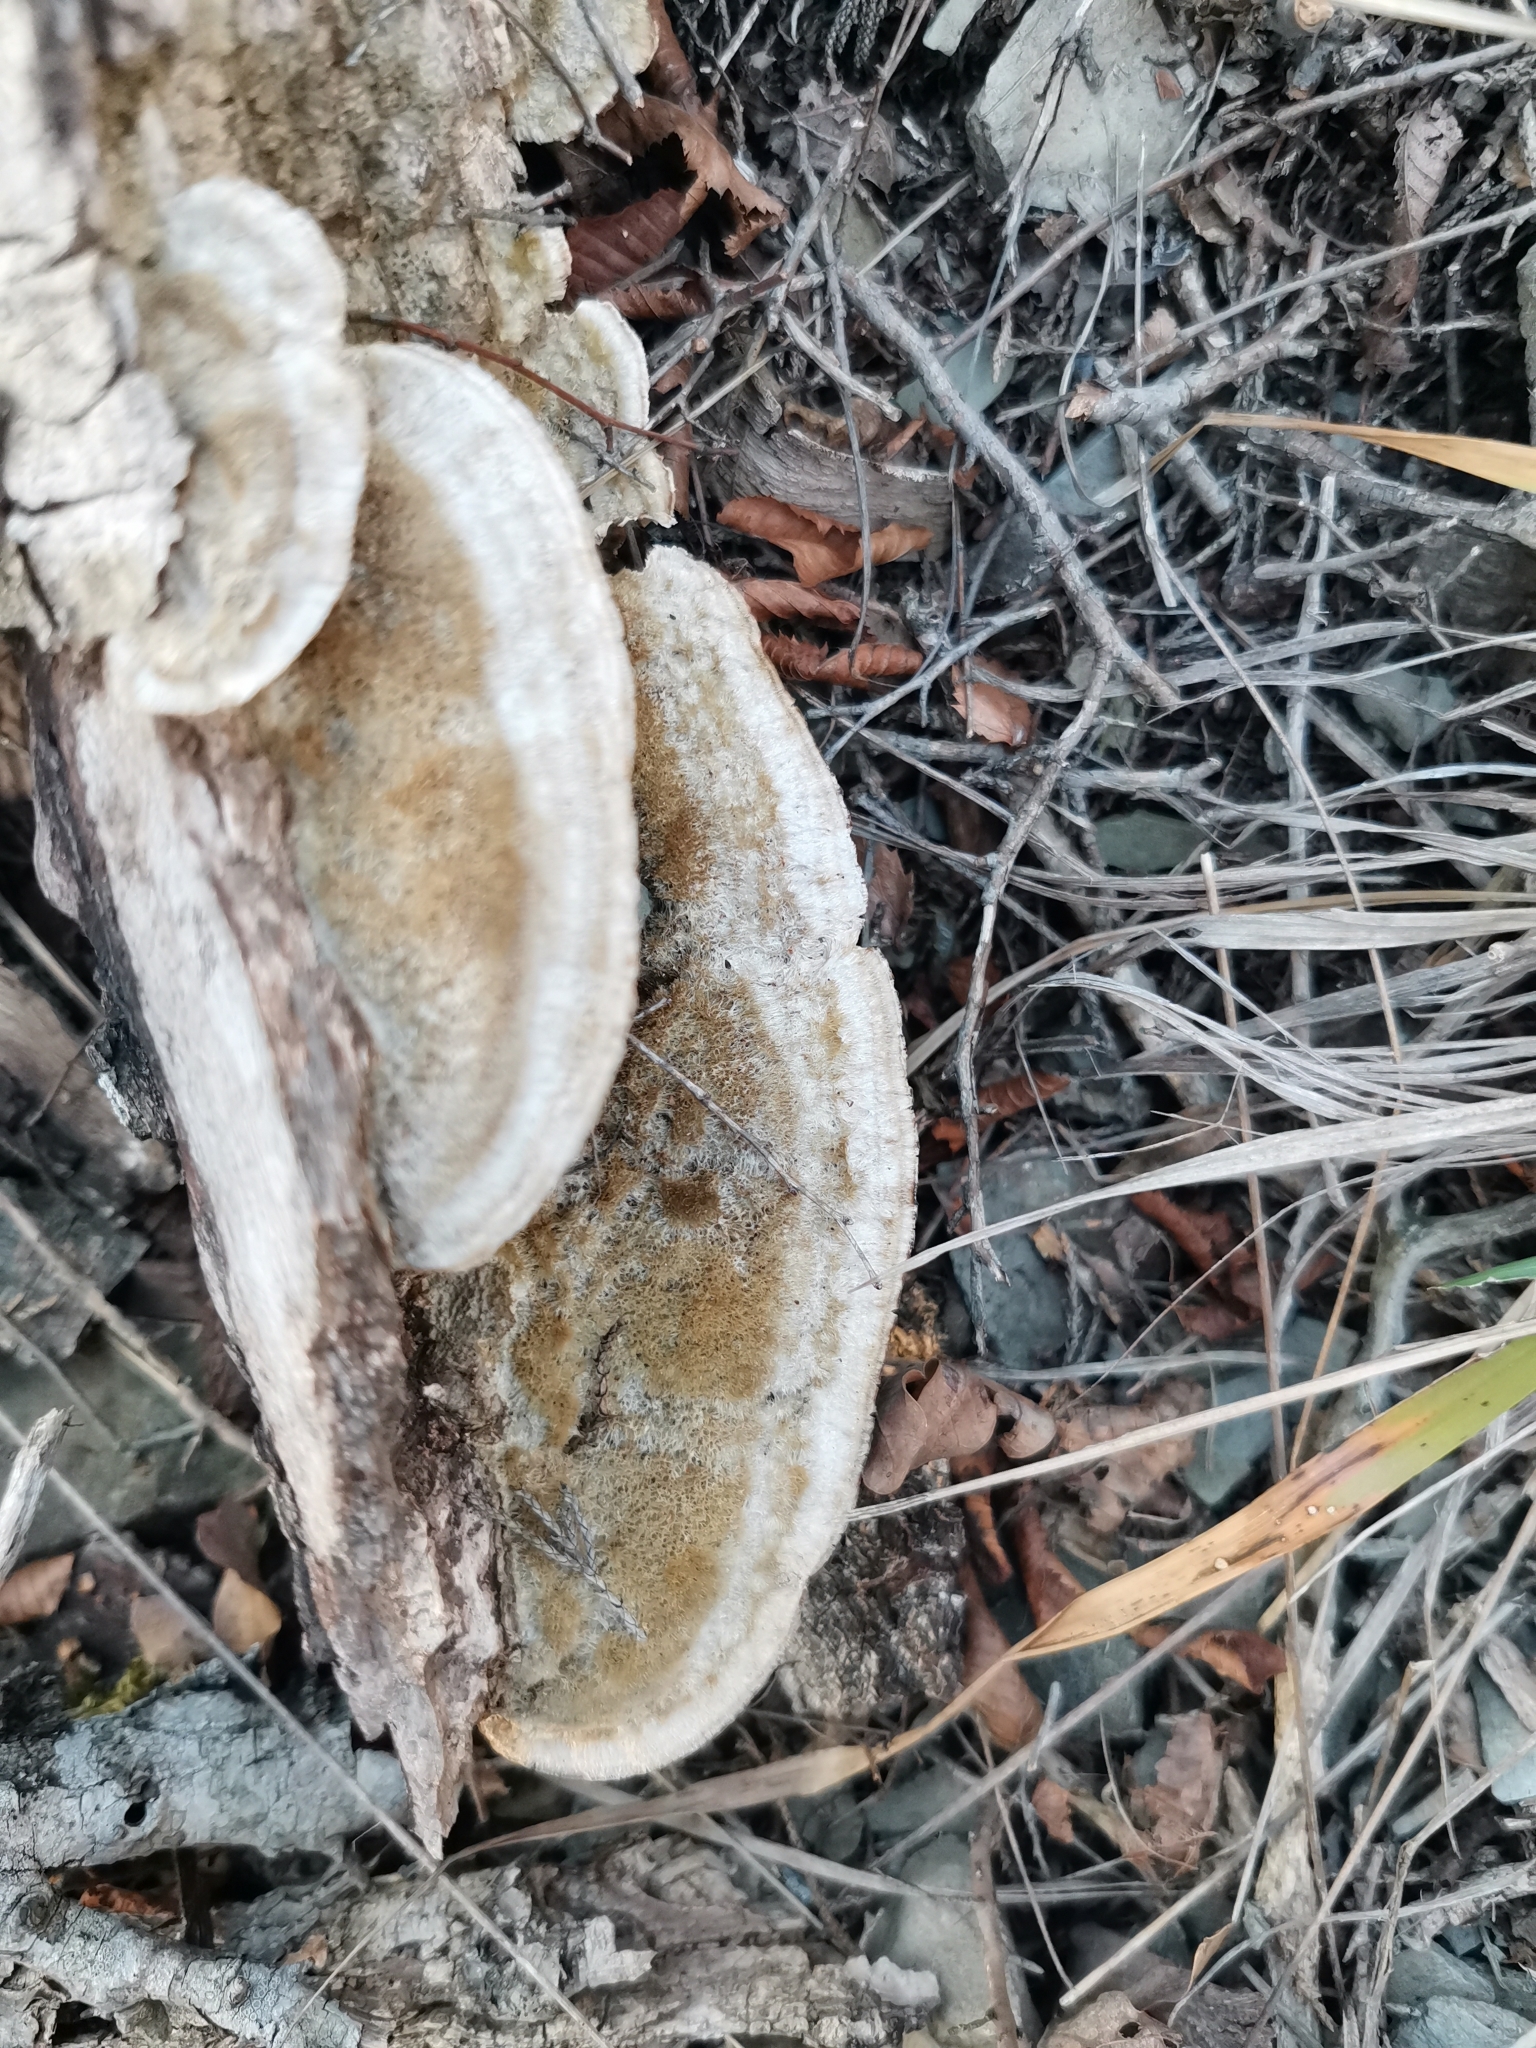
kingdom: Fungi
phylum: Basidiomycota
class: Agaricomycetes
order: Polyporales
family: Polyporaceae
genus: Trametes
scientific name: Trametes trogii
